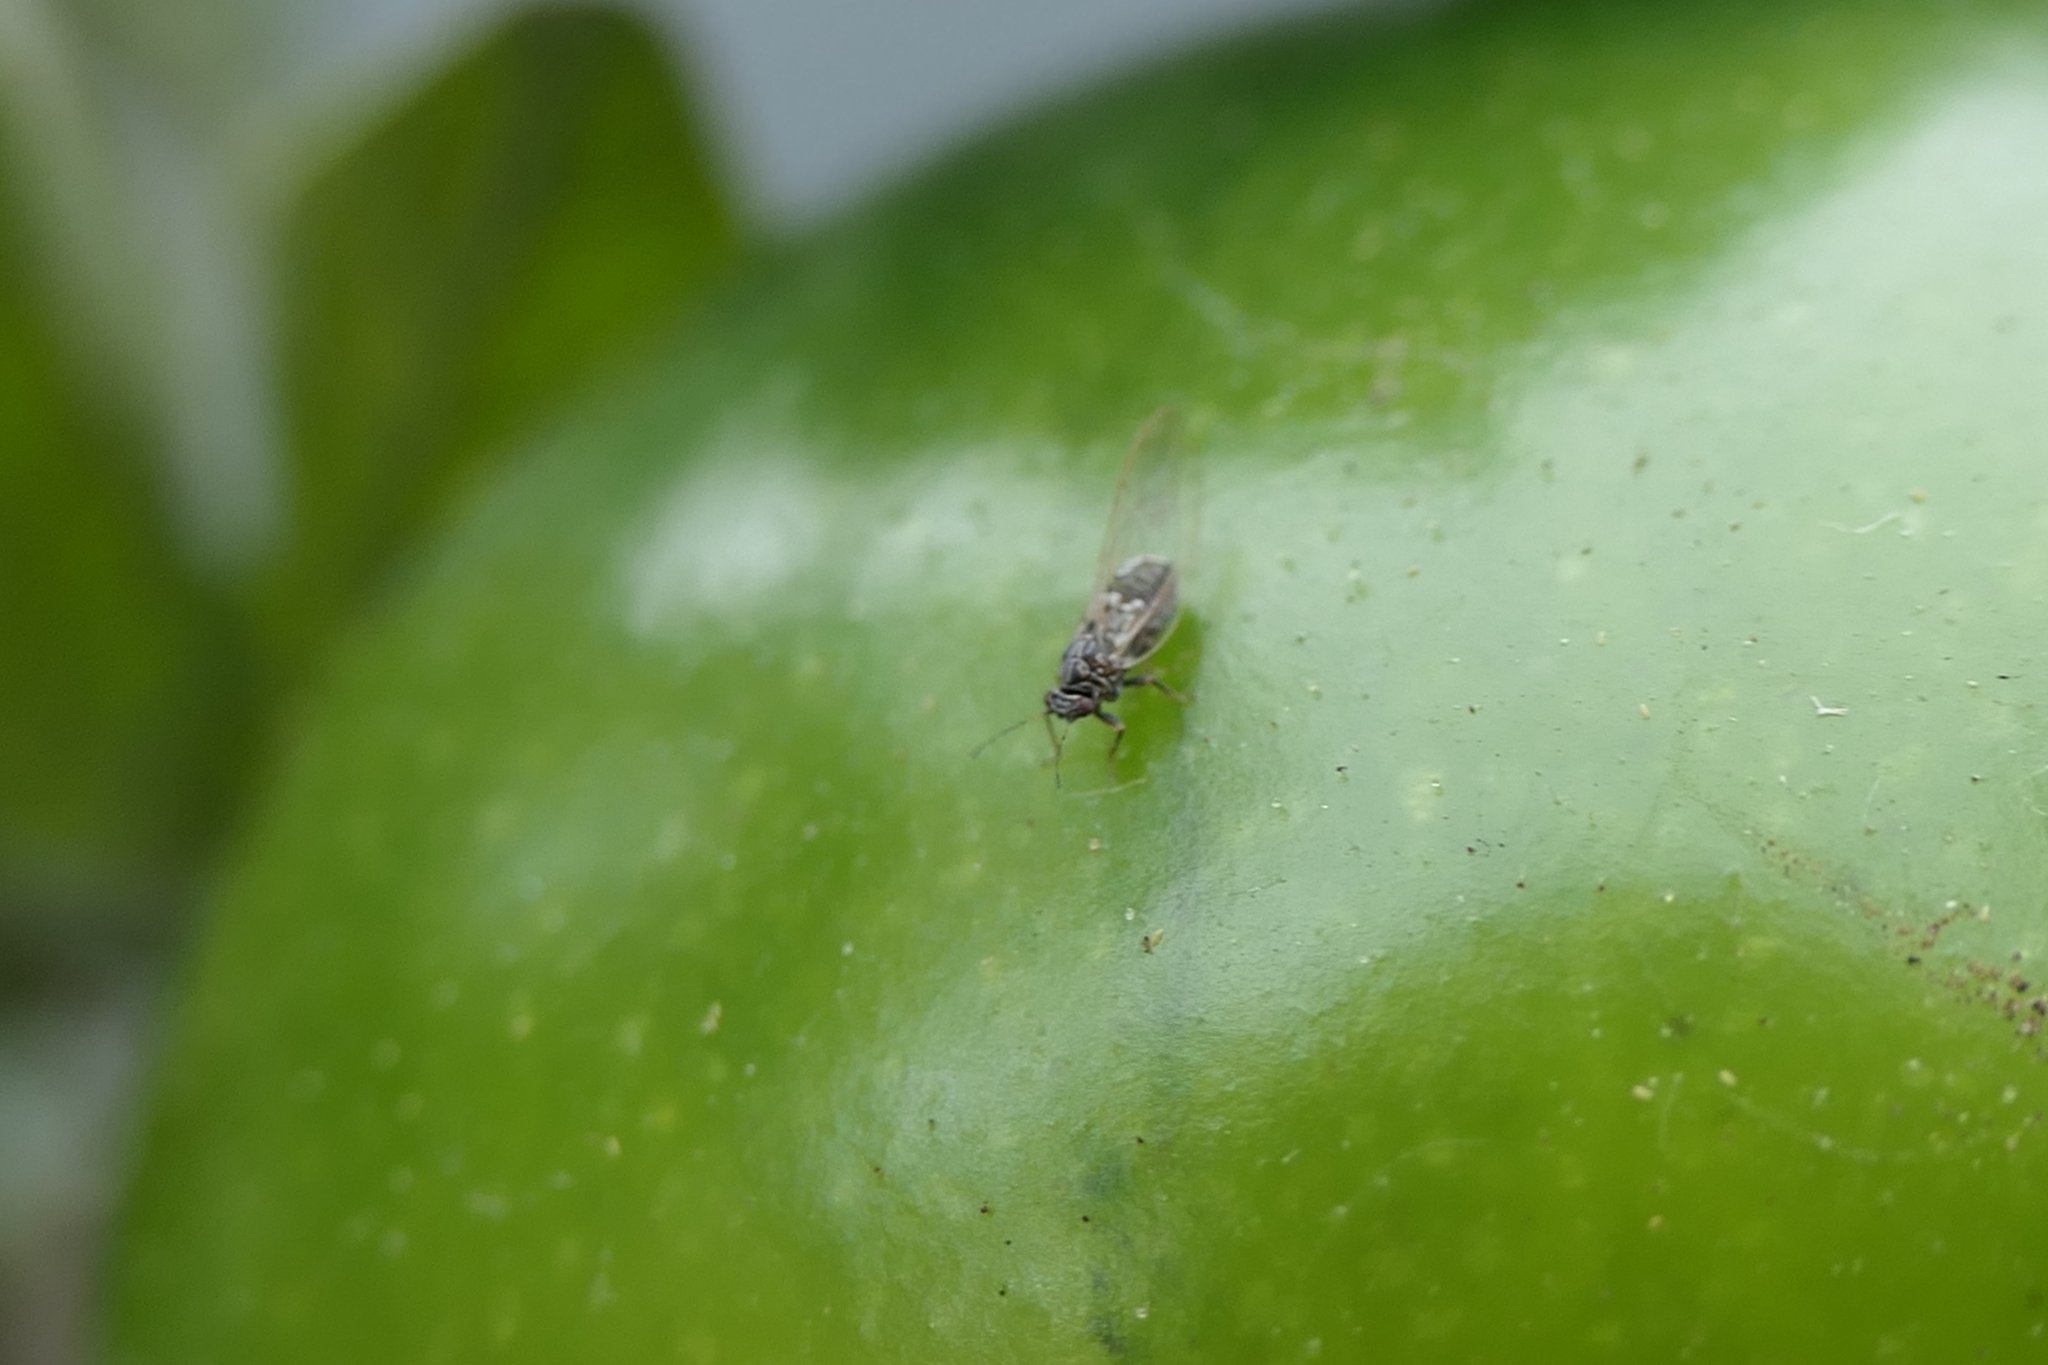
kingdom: Animalia
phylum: Arthropoda
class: Insecta
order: Hemiptera
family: Triozidae
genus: Bactericera
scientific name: Bactericera cockerelli
